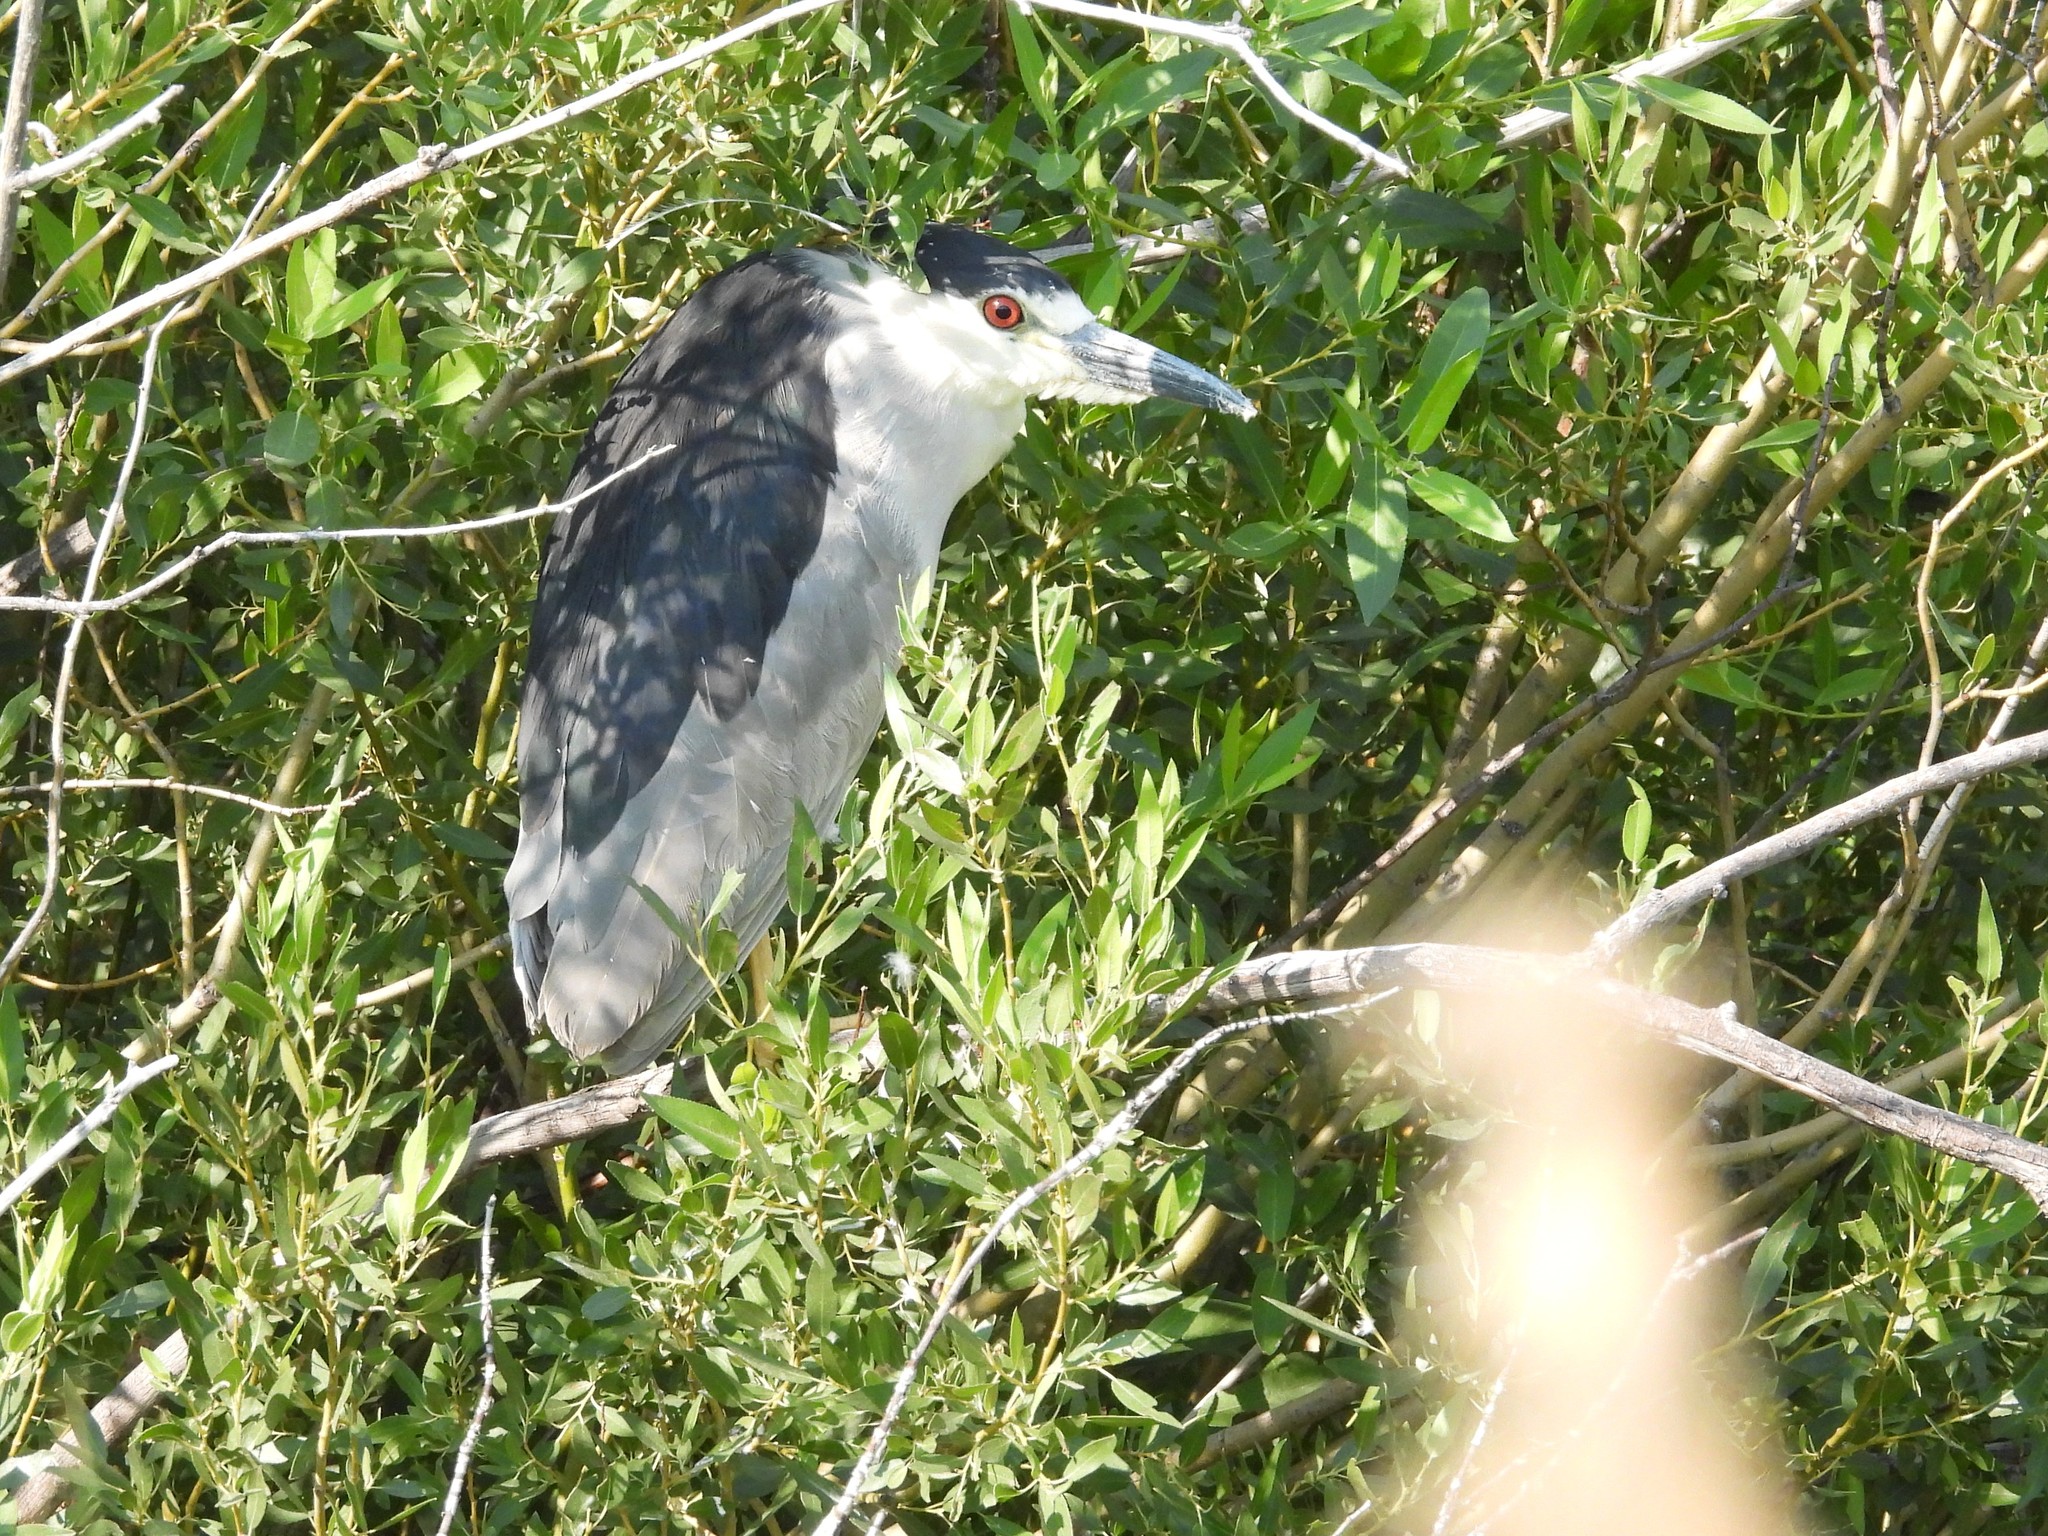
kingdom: Animalia
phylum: Chordata
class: Aves
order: Pelecaniformes
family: Ardeidae
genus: Nycticorax
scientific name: Nycticorax nycticorax
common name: Black-crowned night heron
